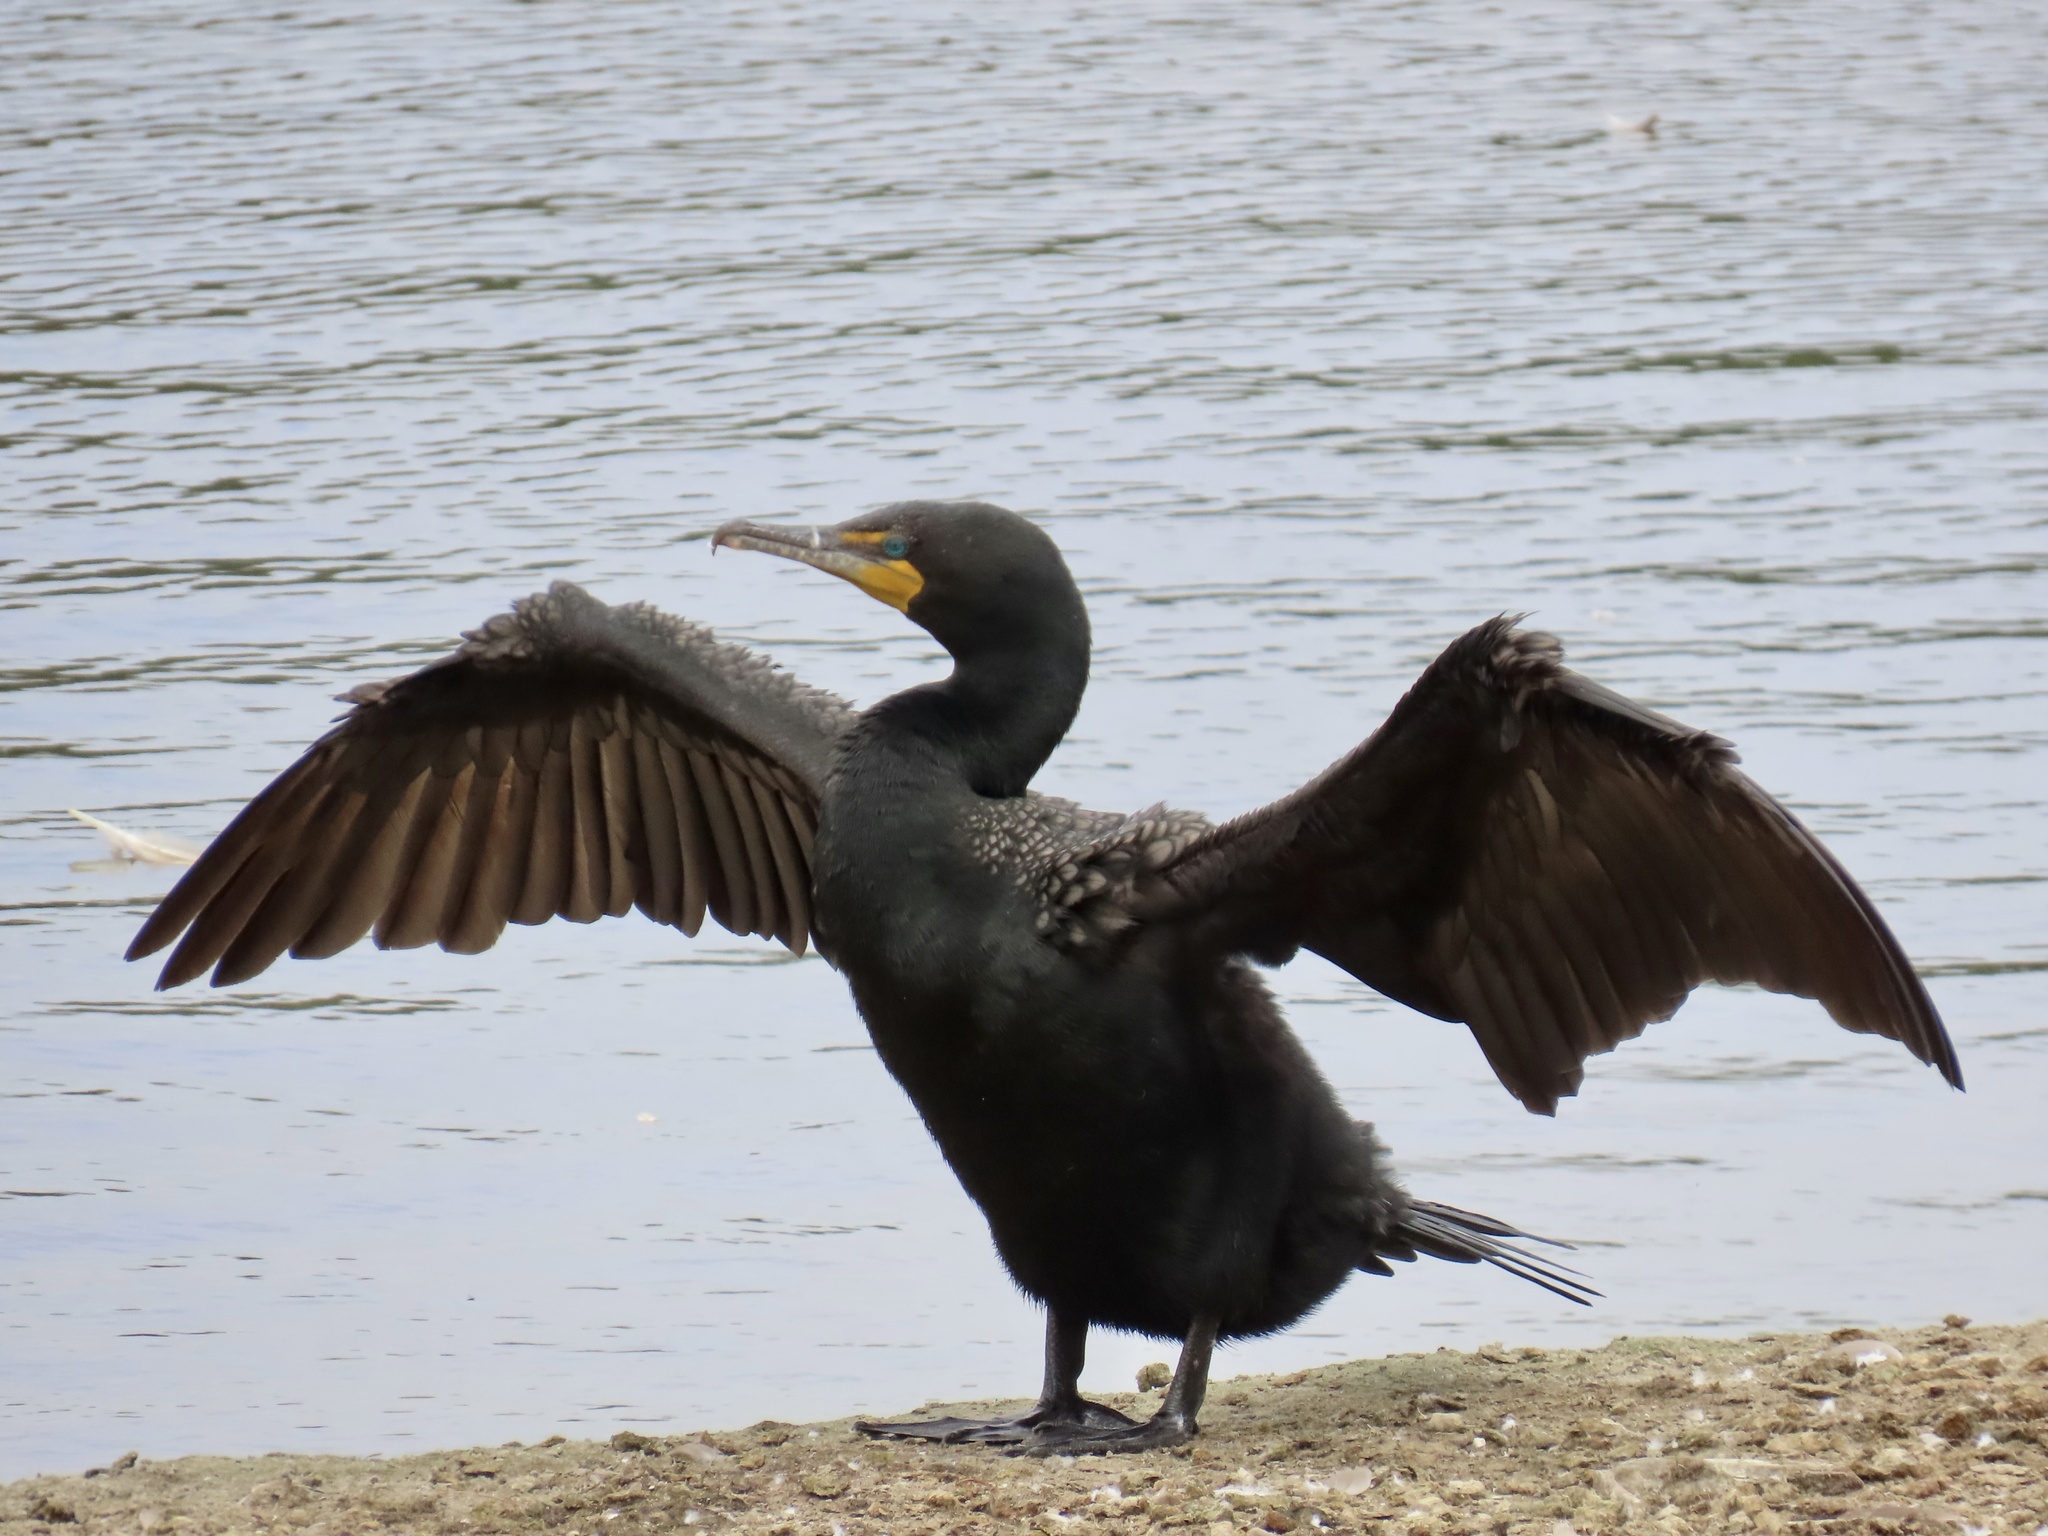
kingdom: Animalia
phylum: Chordata
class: Aves
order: Suliformes
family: Phalacrocoracidae
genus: Phalacrocorax
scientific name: Phalacrocorax auritus
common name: Double-crested cormorant
